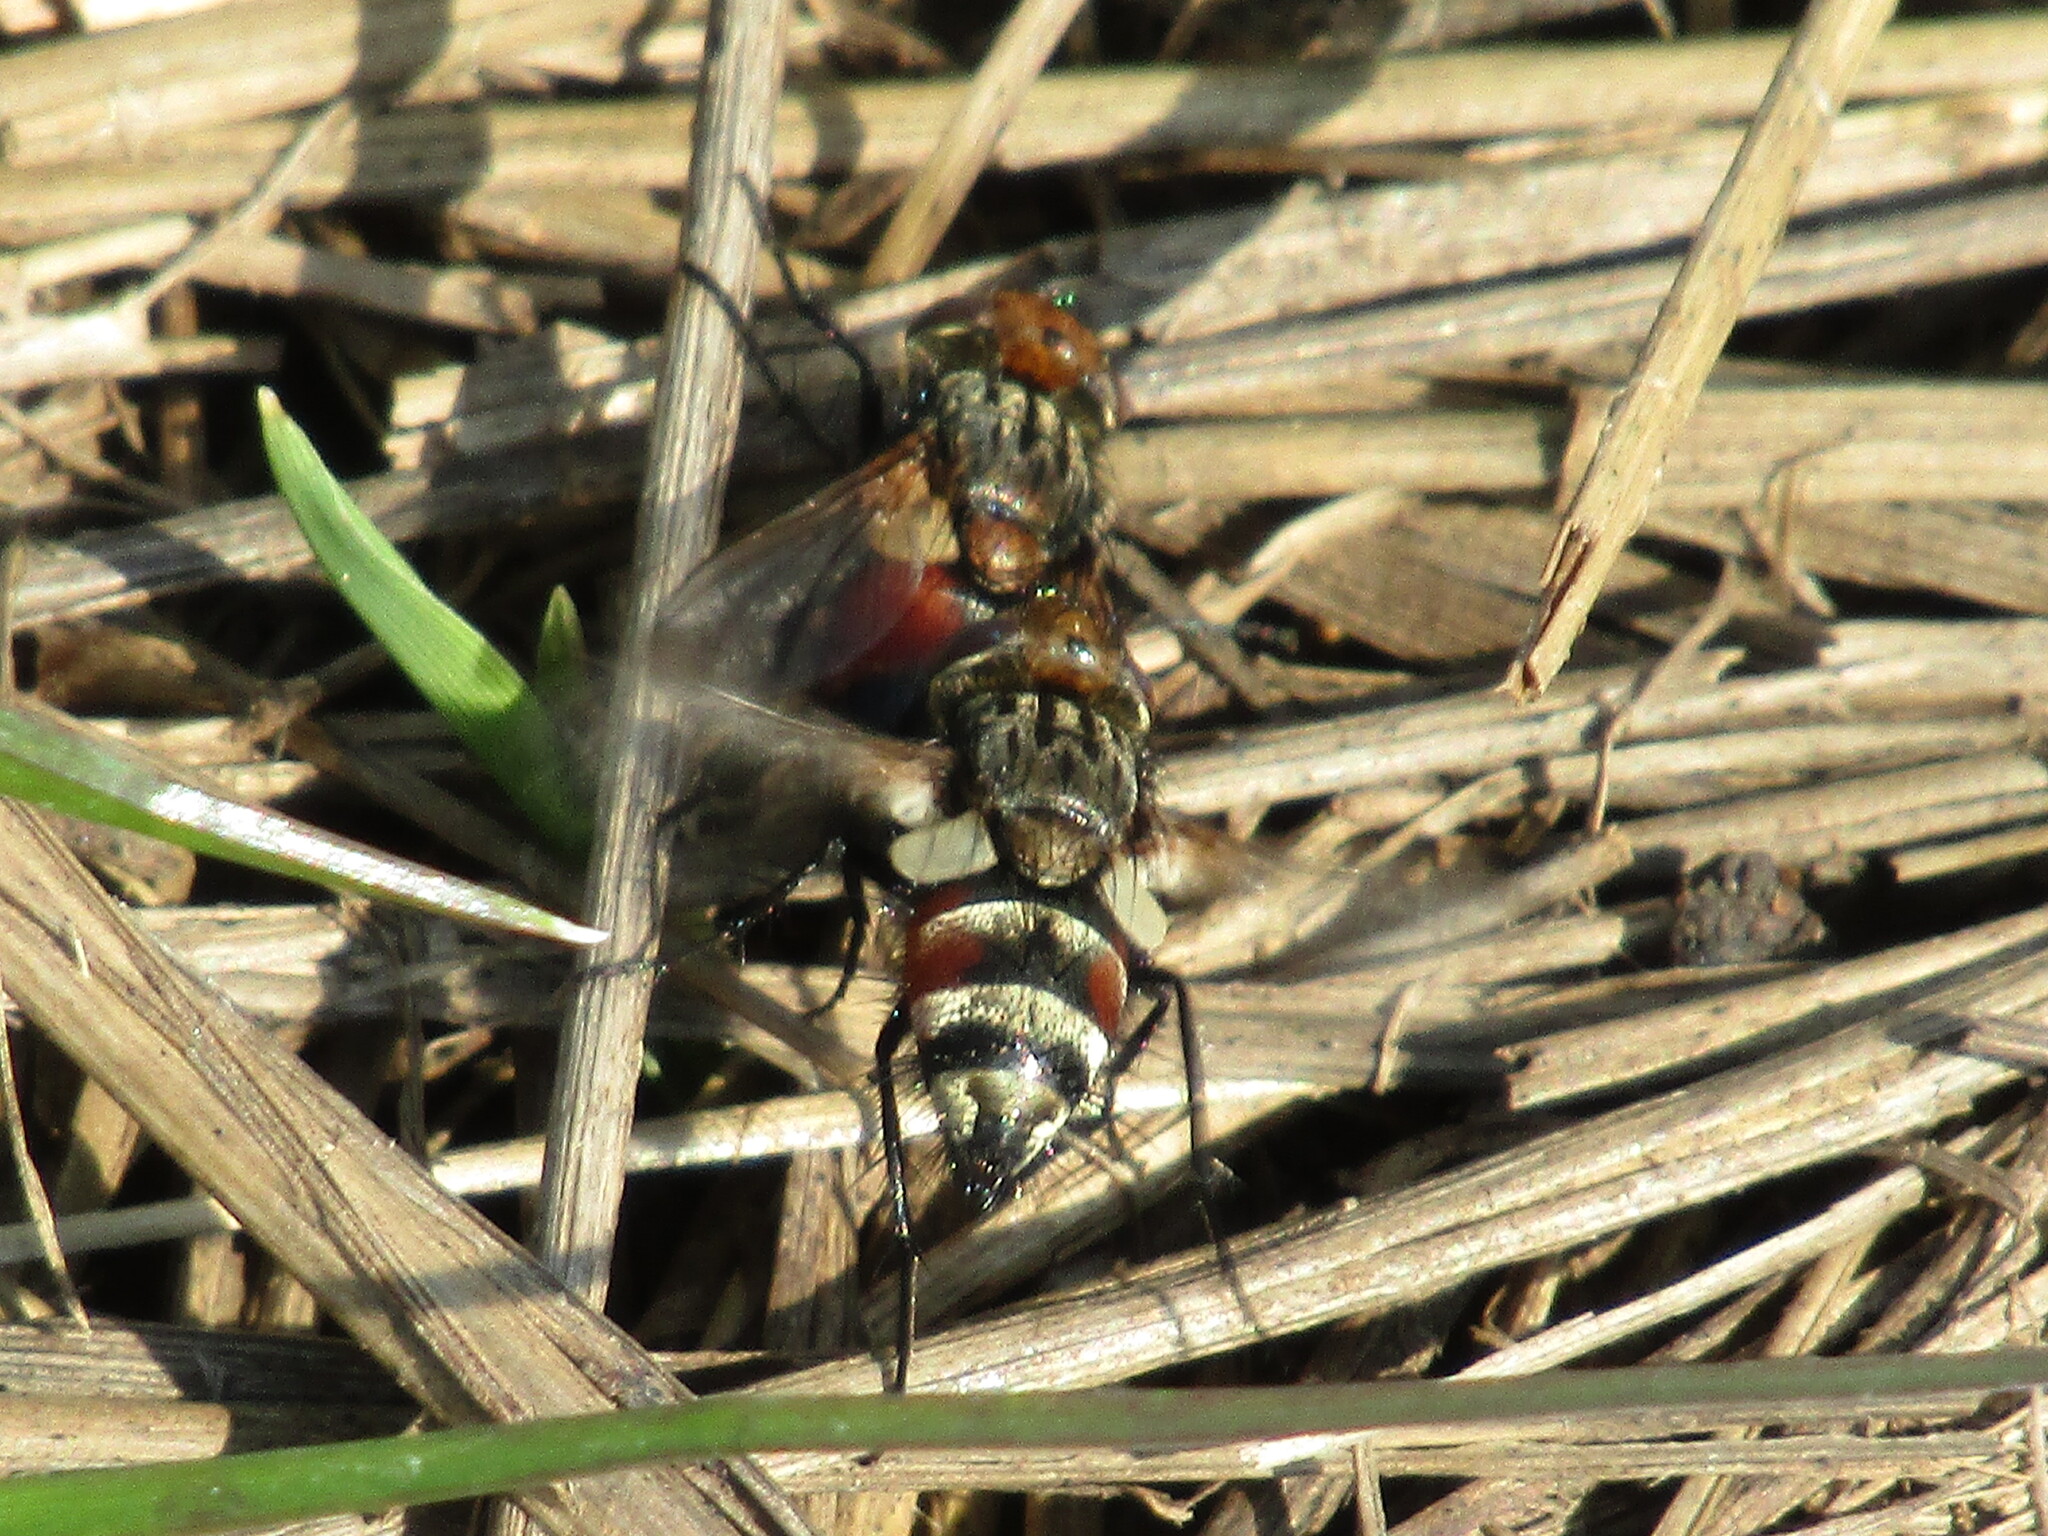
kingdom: Animalia
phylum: Arthropoda
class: Insecta
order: Diptera
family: Tachinidae
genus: Gonia
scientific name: Gonia ornata
